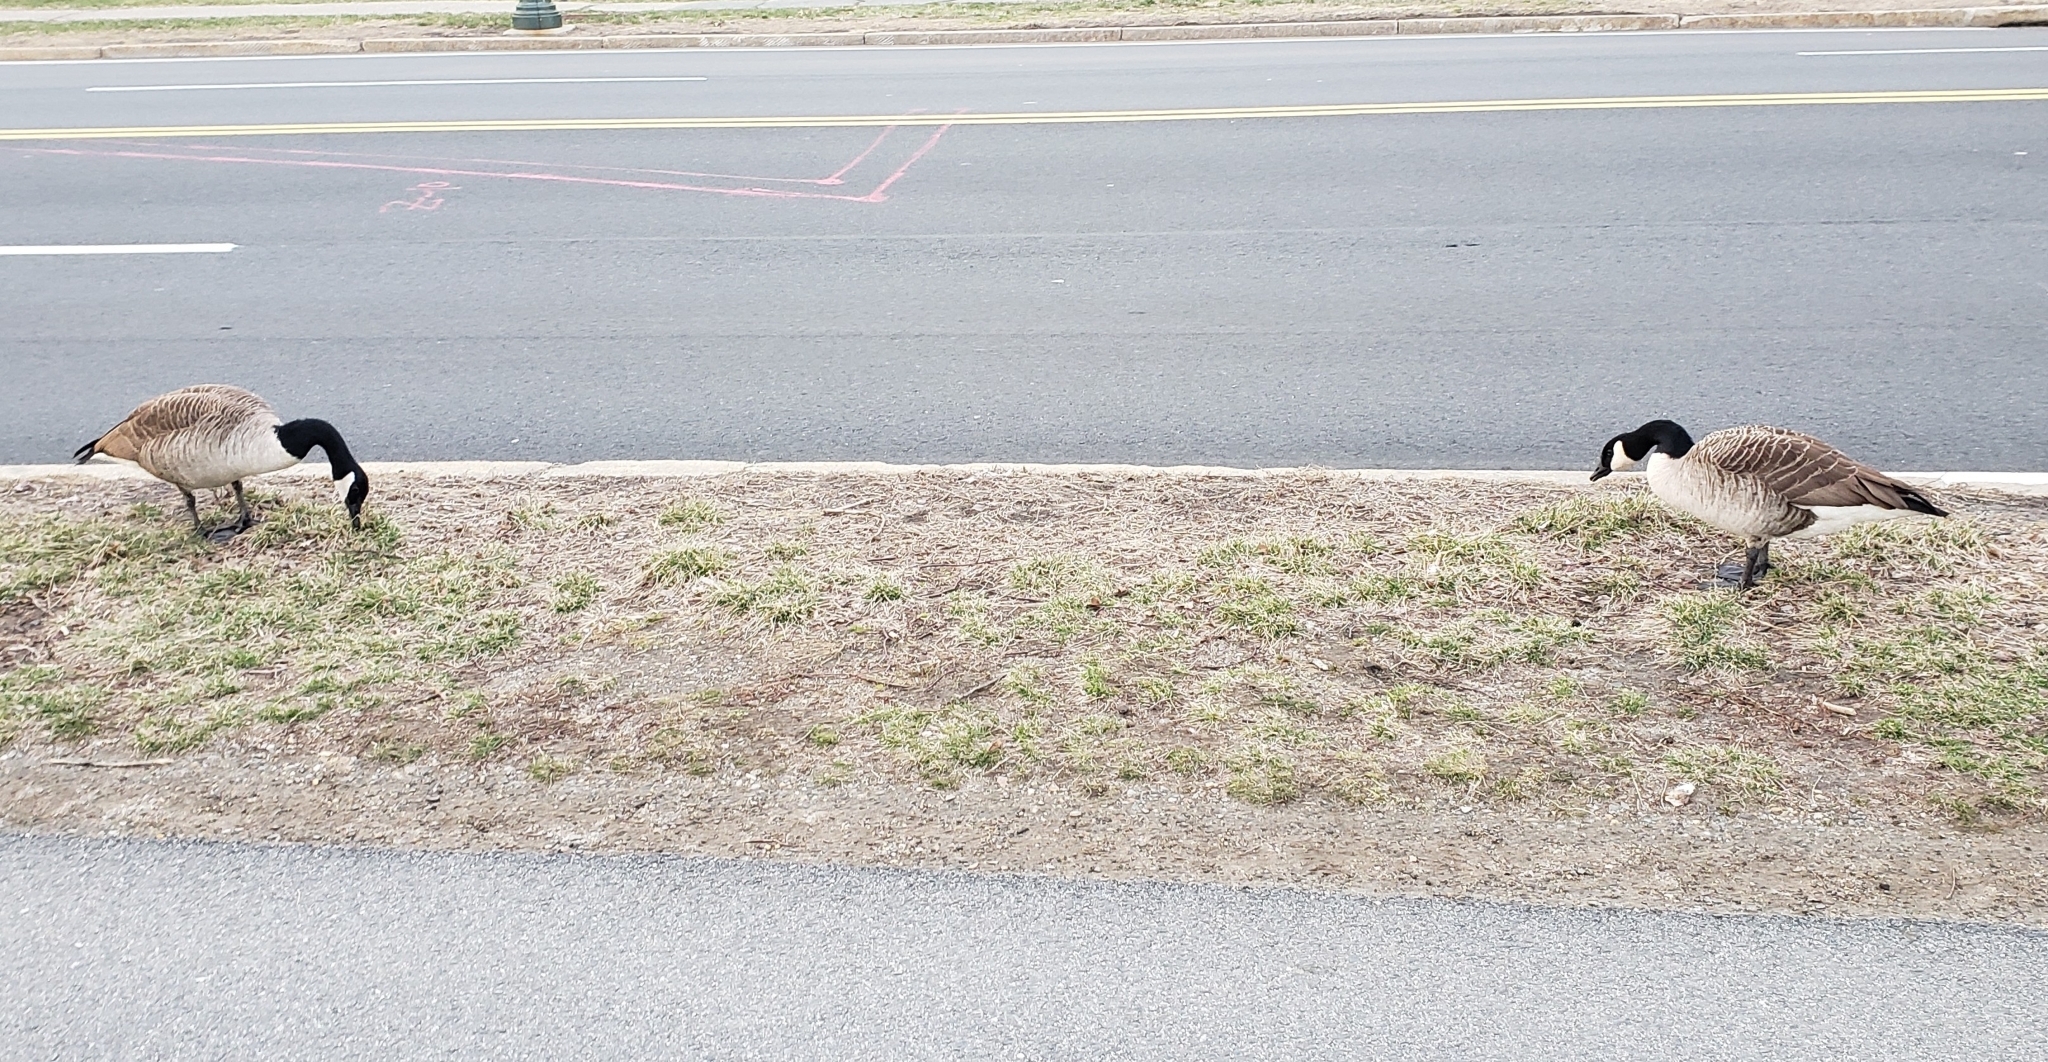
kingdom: Animalia
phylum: Chordata
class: Aves
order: Anseriformes
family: Anatidae
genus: Branta
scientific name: Branta canadensis
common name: Canada goose
